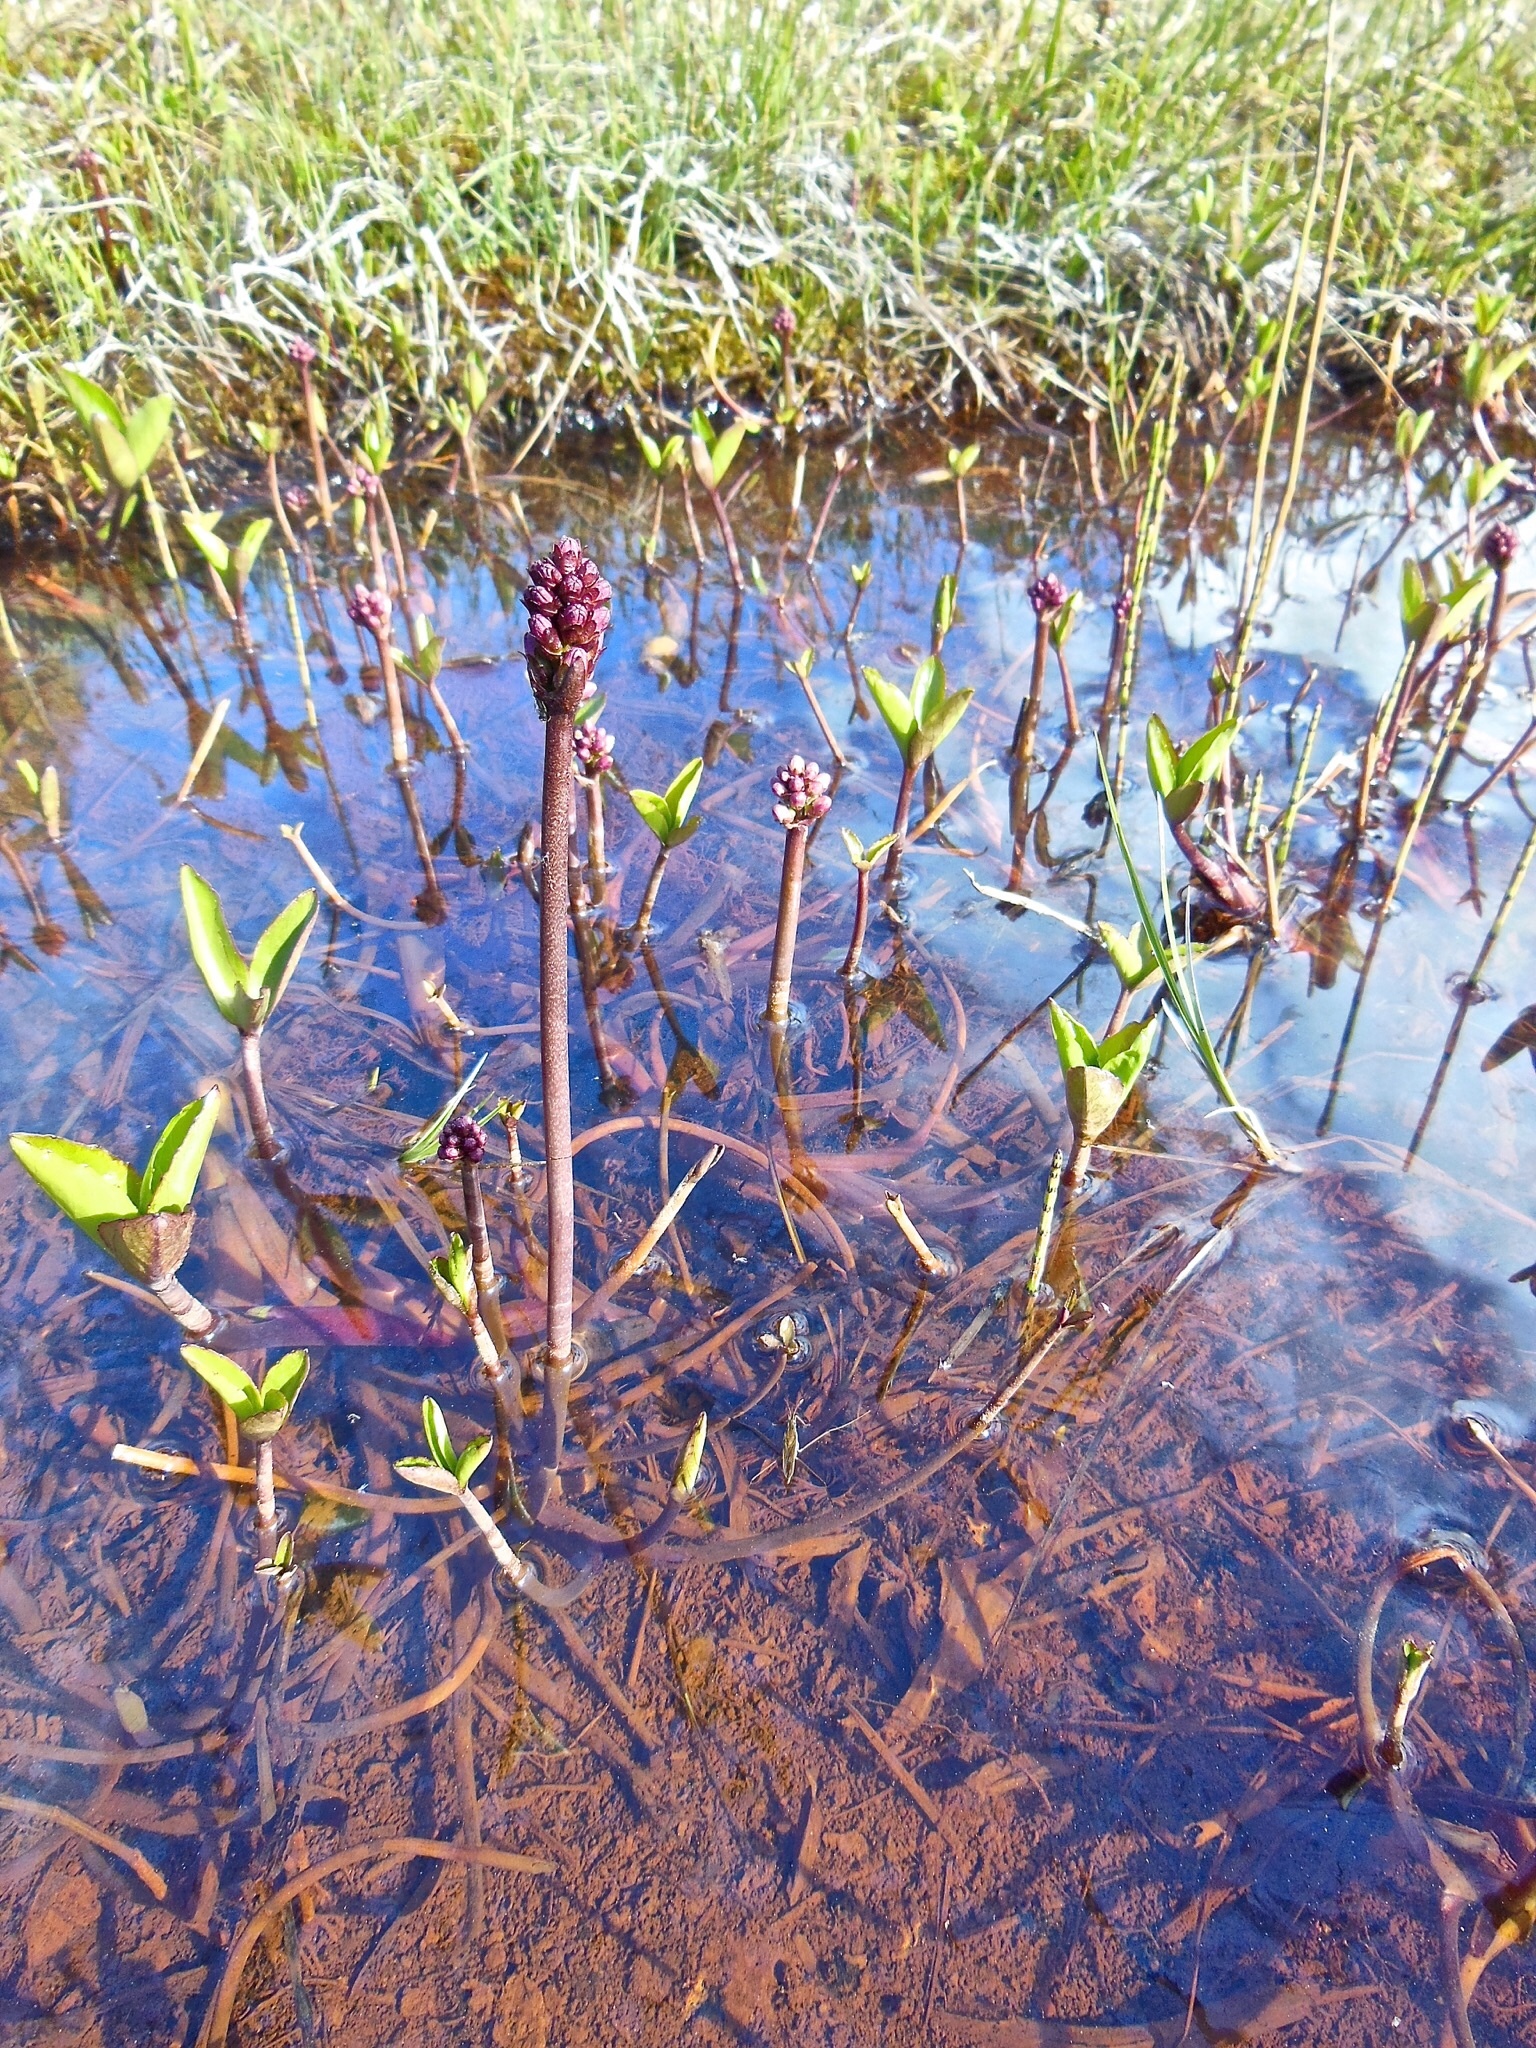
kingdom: Plantae
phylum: Tracheophyta
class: Magnoliopsida
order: Asterales
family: Menyanthaceae
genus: Menyanthes
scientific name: Menyanthes trifoliata
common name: Bogbean
